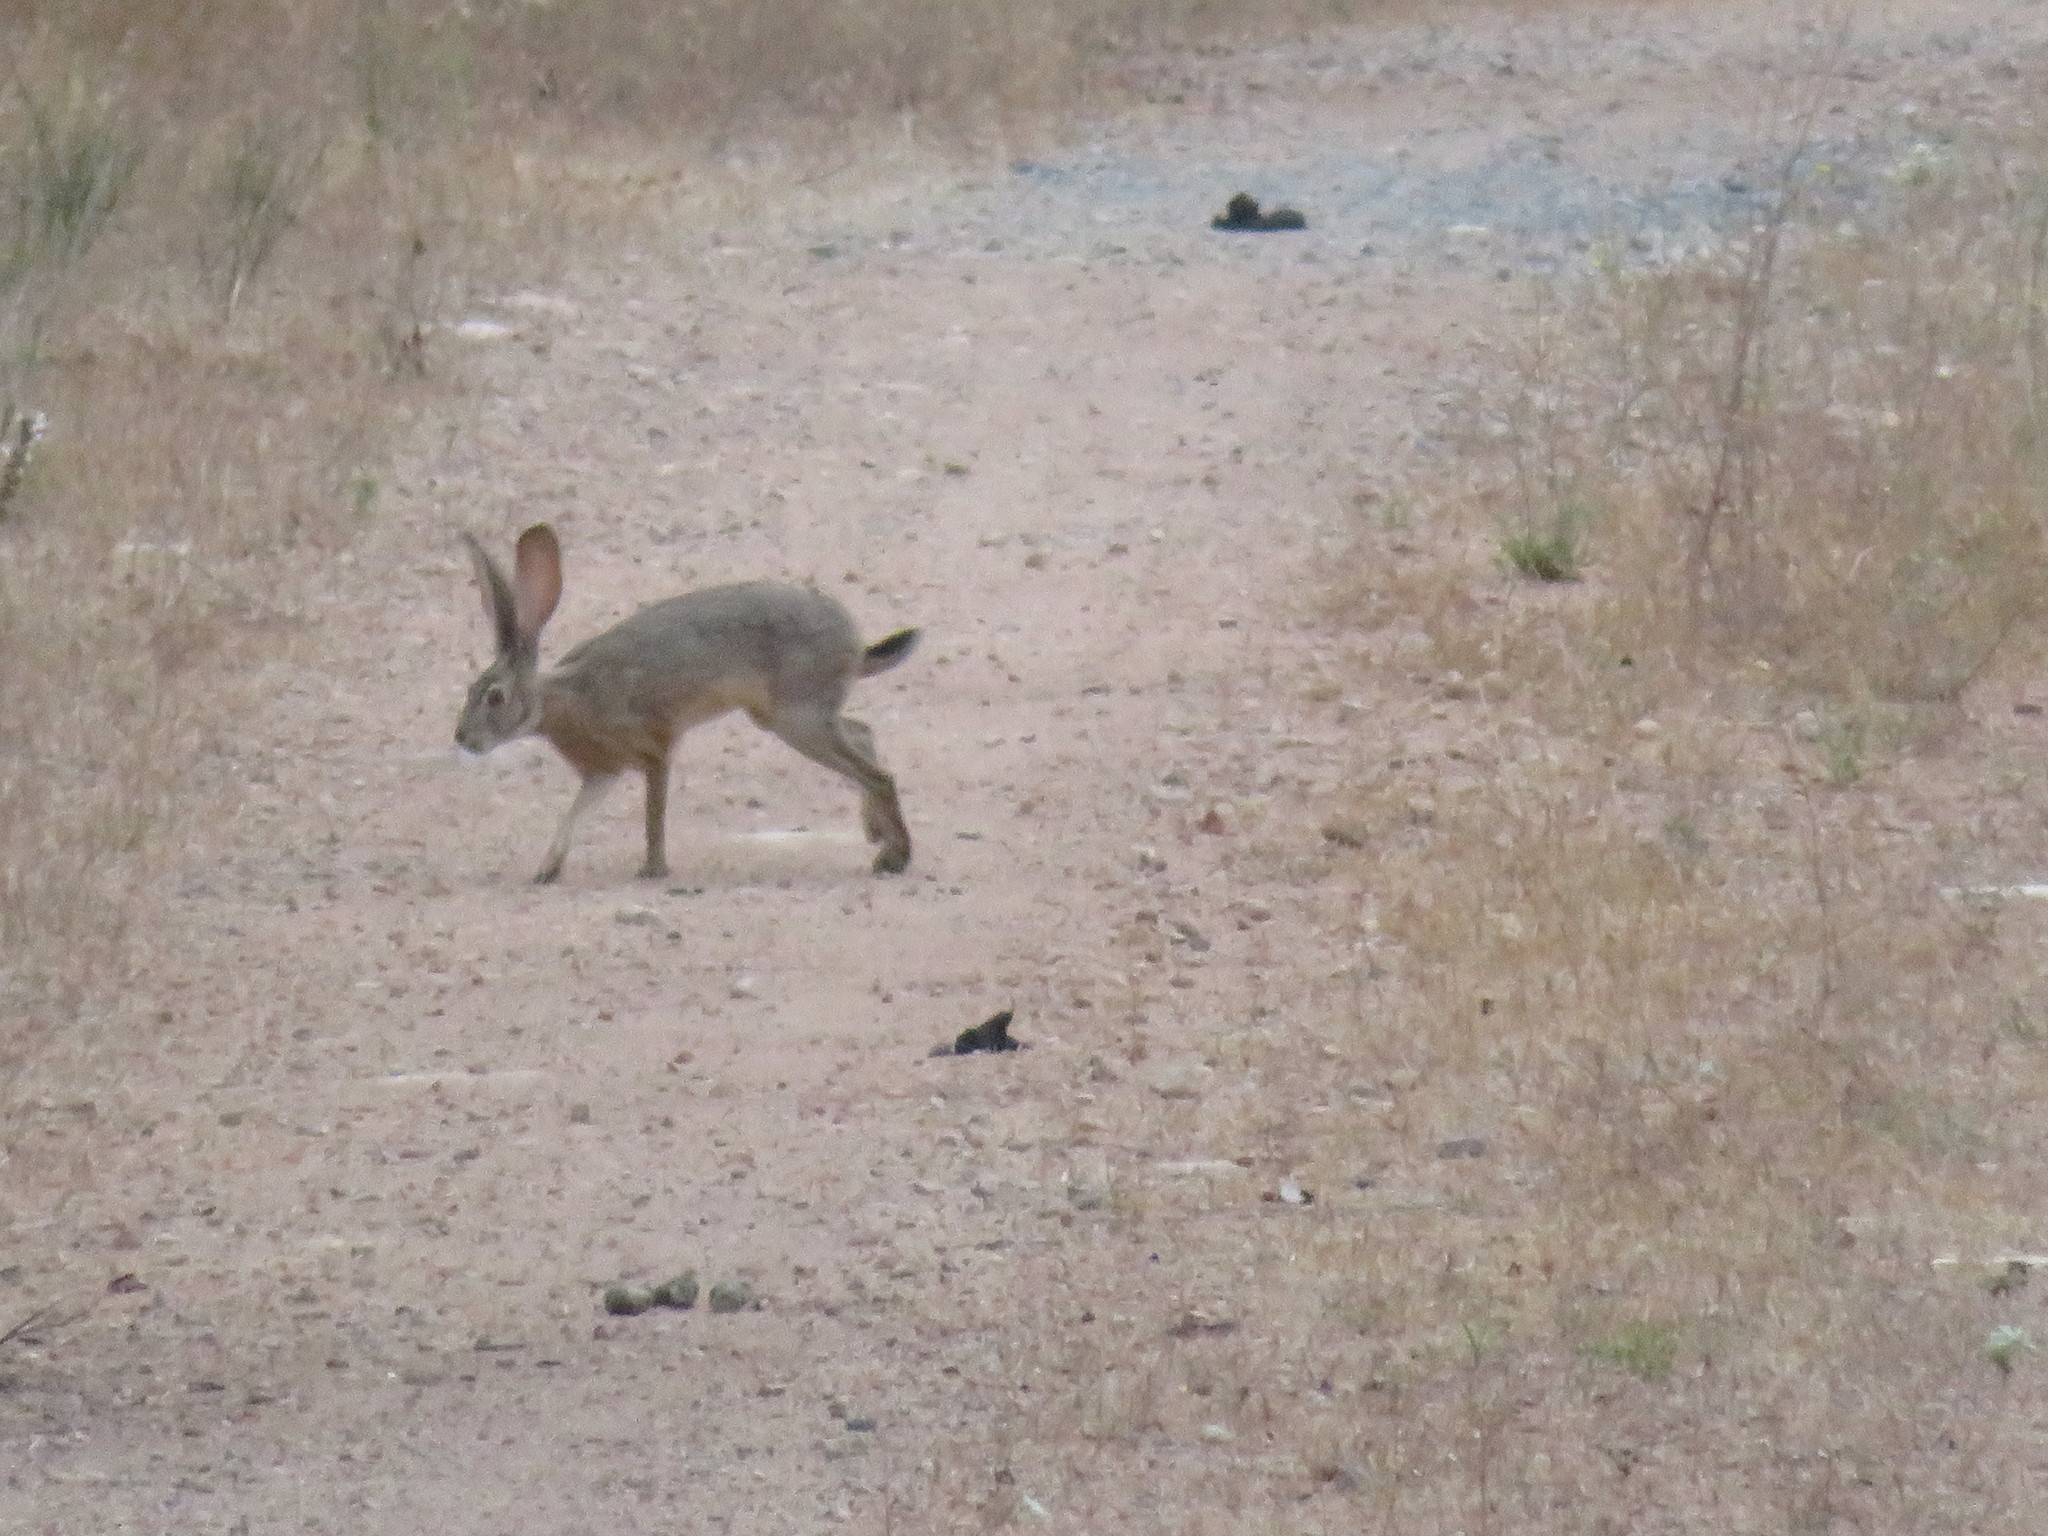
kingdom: Animalia
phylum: Chordata
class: Mammalia
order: Lagomorpha
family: Leporidae
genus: Lepus
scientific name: Lepus californicus
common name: Black-tailed jackrabbit
